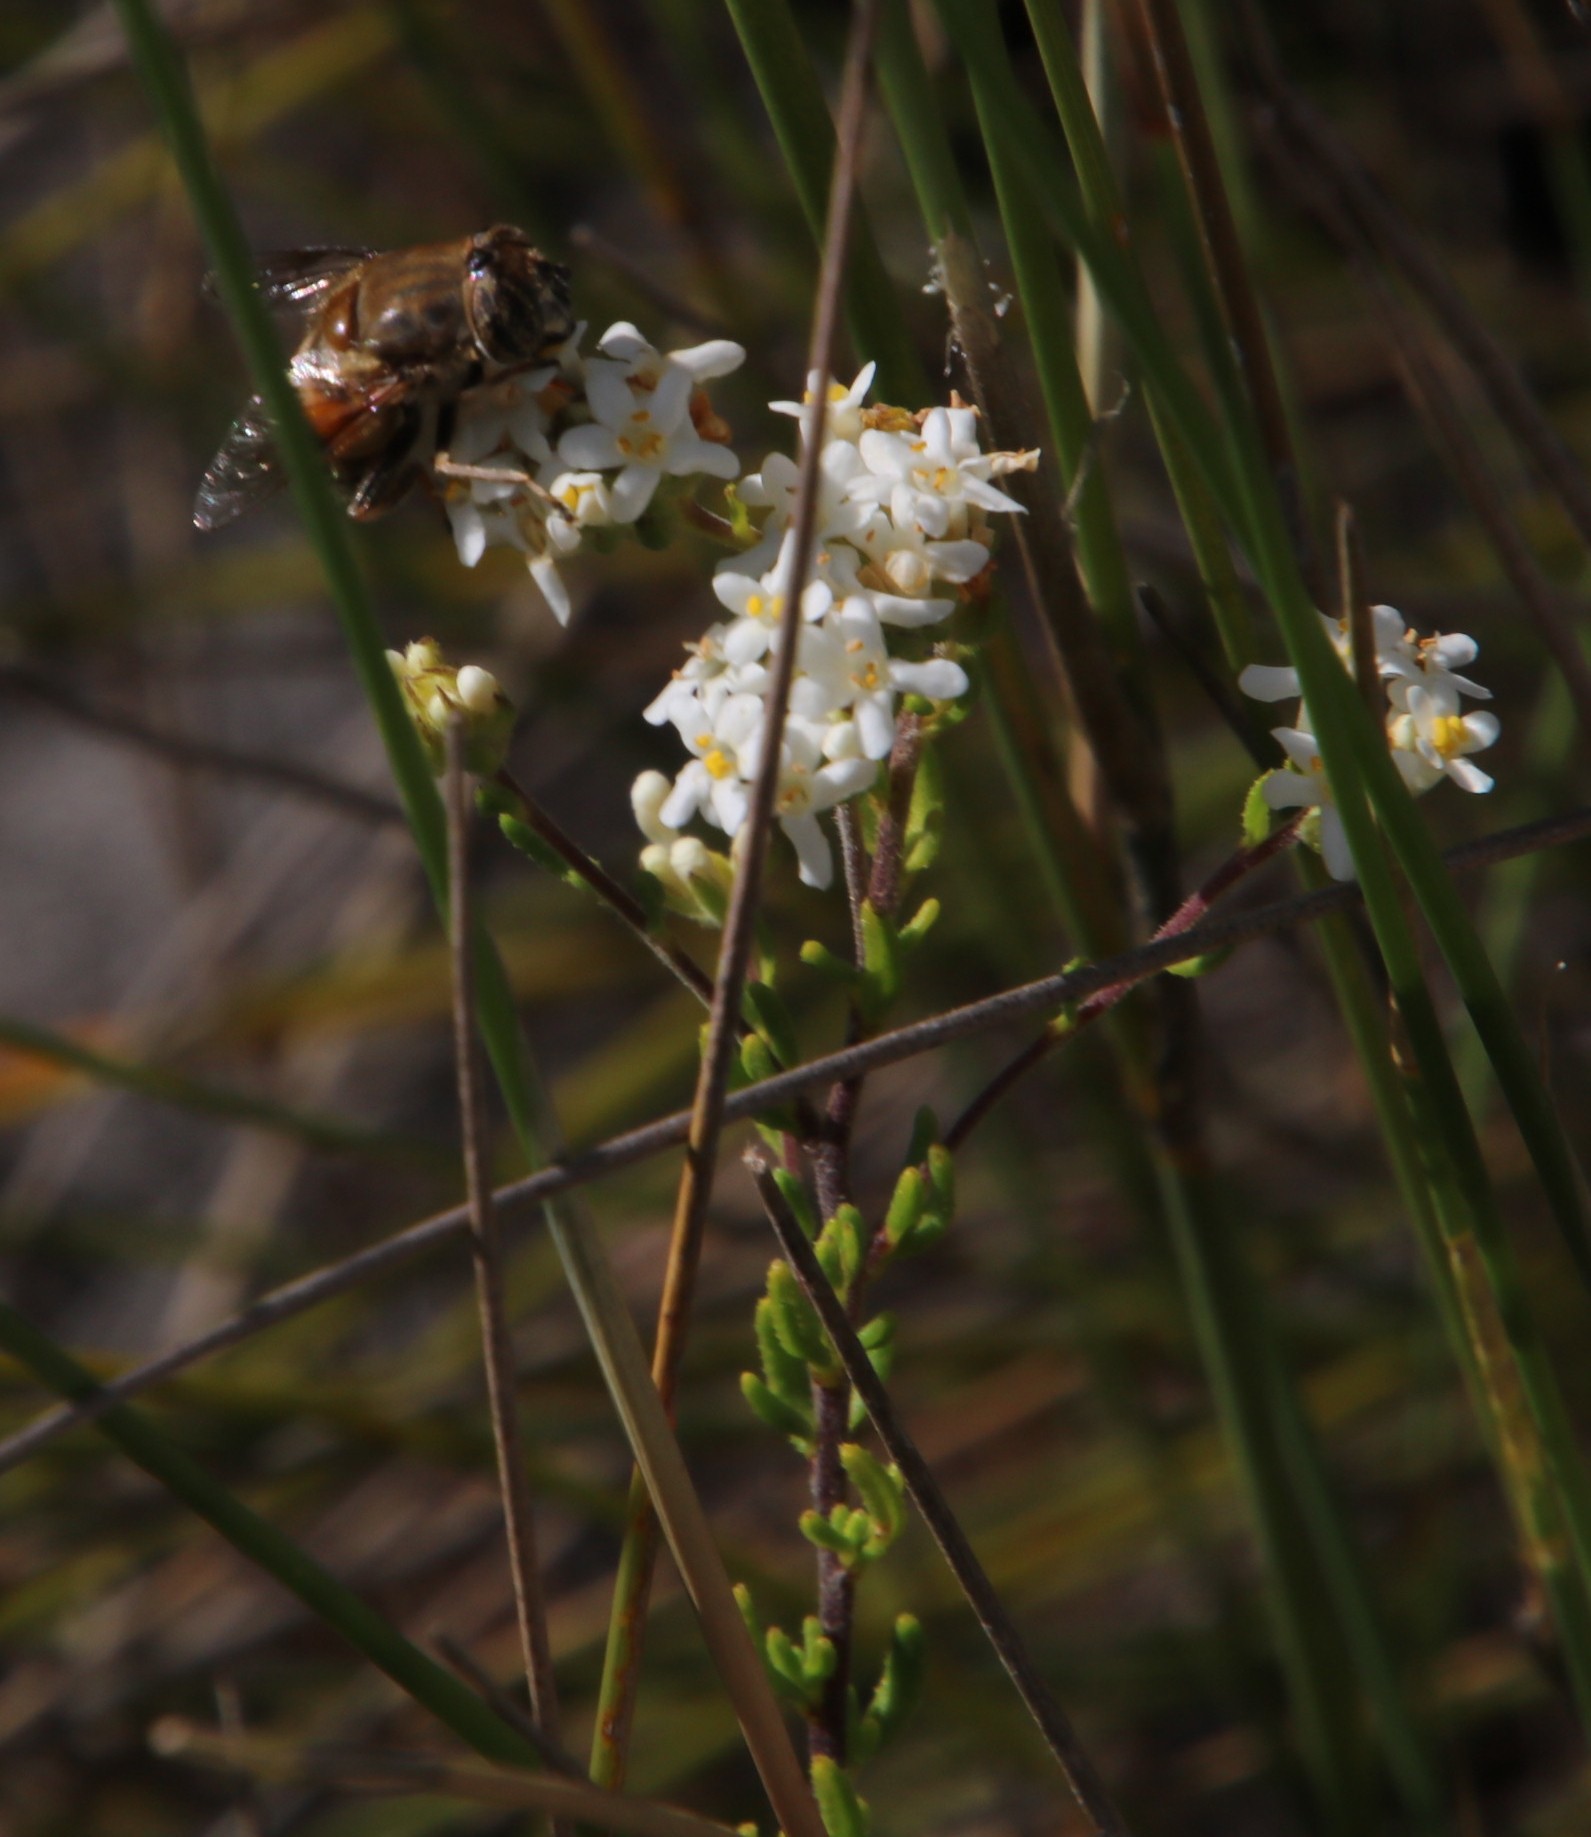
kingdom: Animalia
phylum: Arthropoda
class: Insecta
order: Diptera
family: Syrphidae
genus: Eristalis
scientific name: Eristalis tenax
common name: Drone fly
